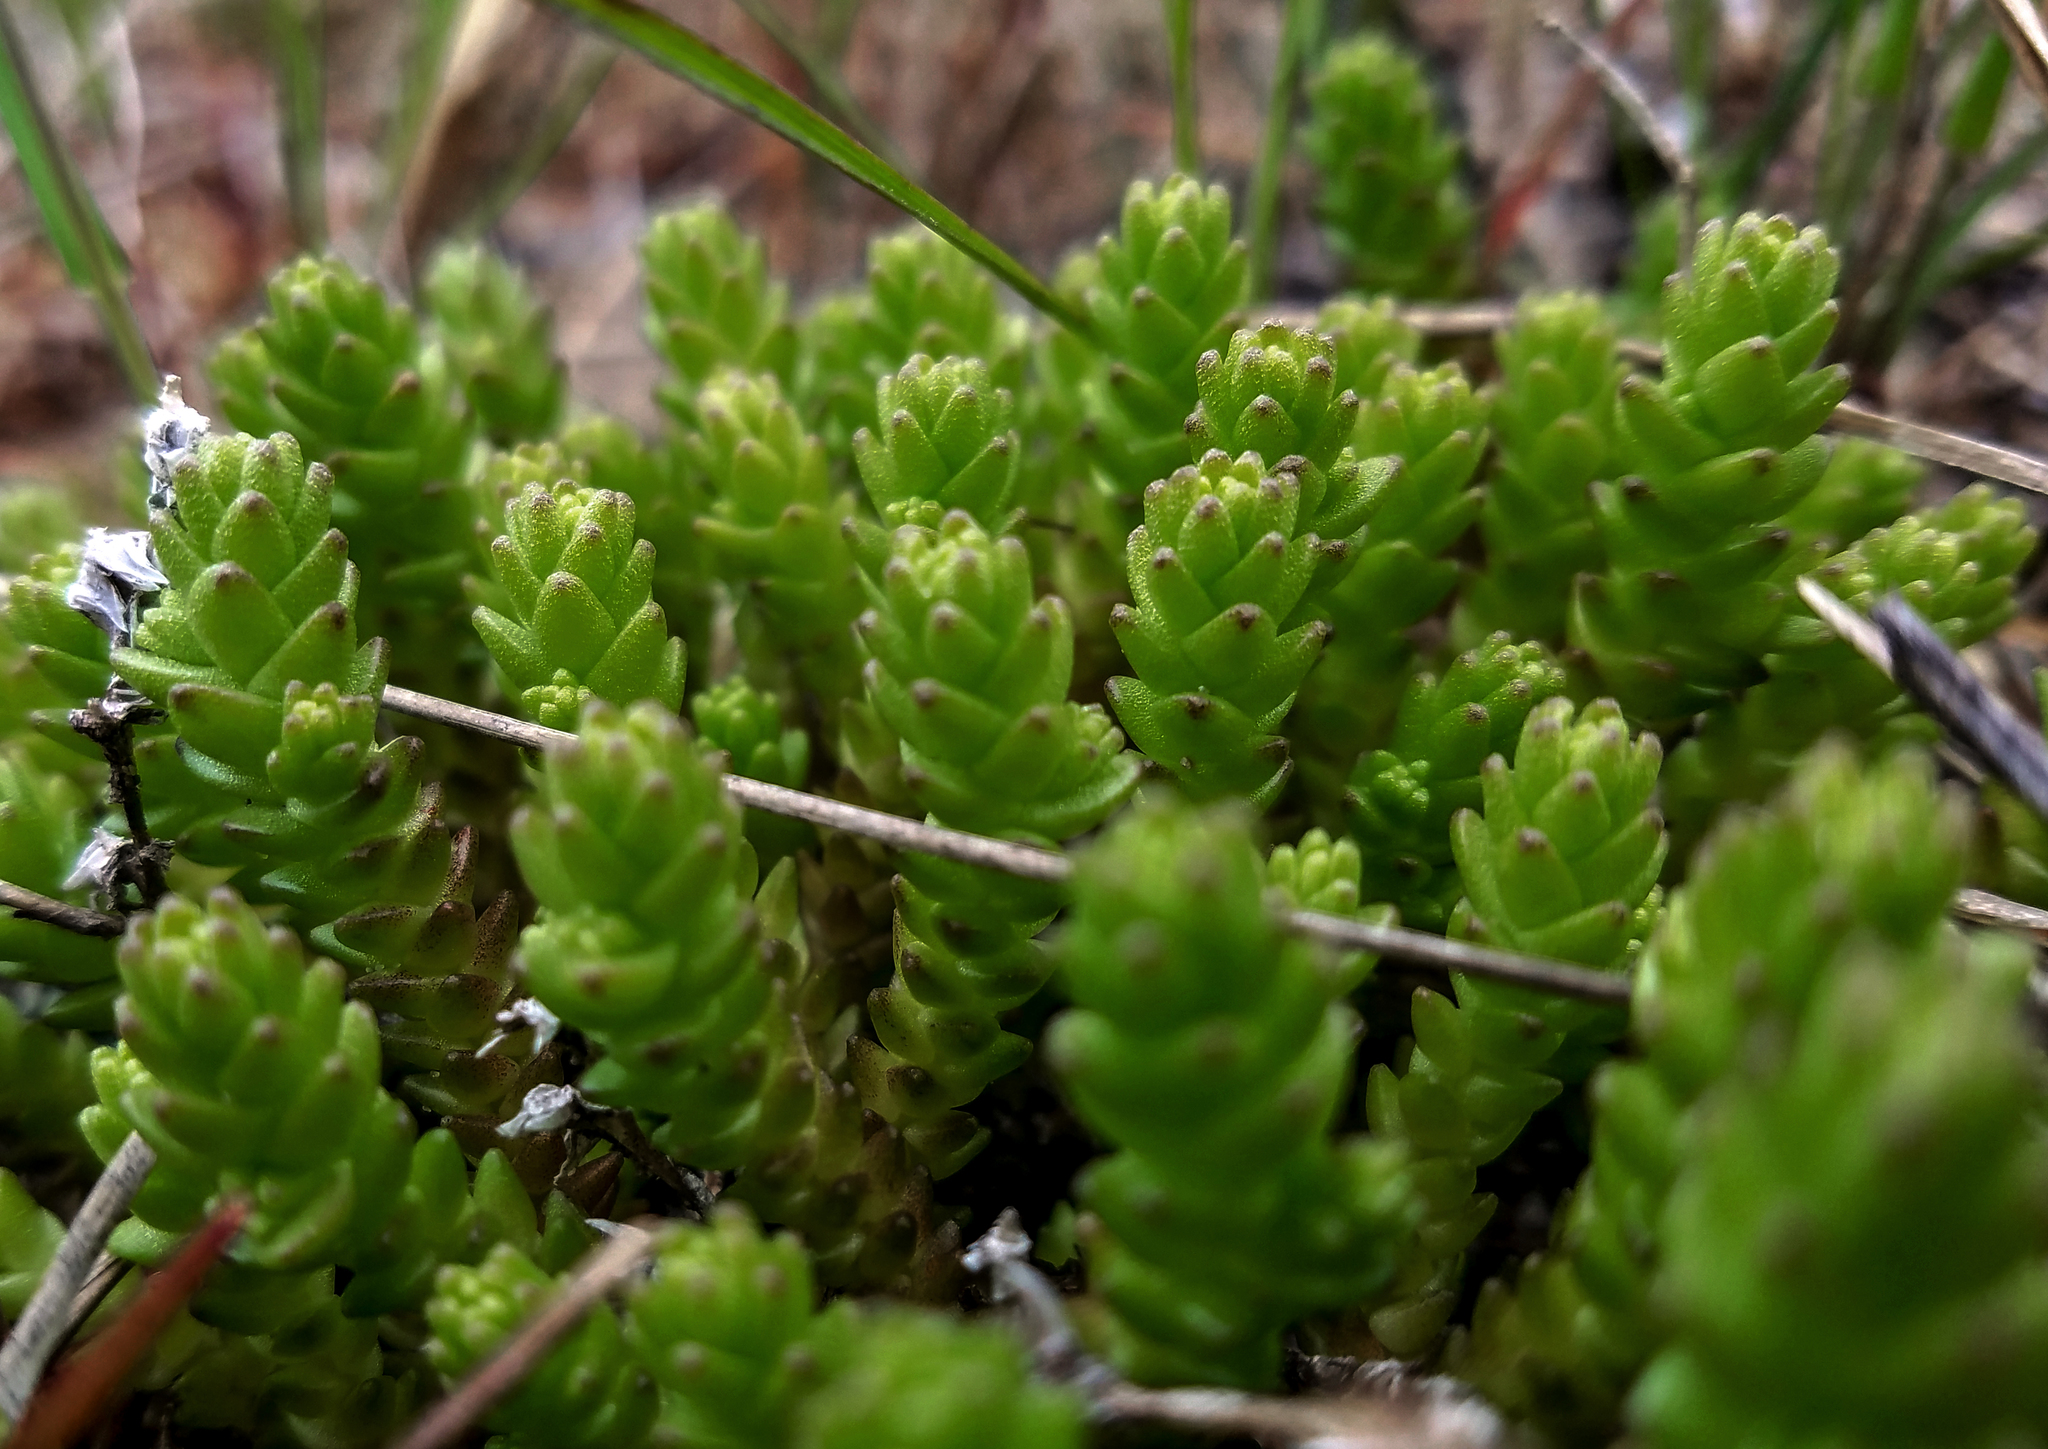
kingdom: Plantae
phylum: Tracheophyta
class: Magnoliopsida
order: Saxifragales
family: Crassulaceae
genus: Sedum
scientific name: Sedum acre
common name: Biting stonecrop
